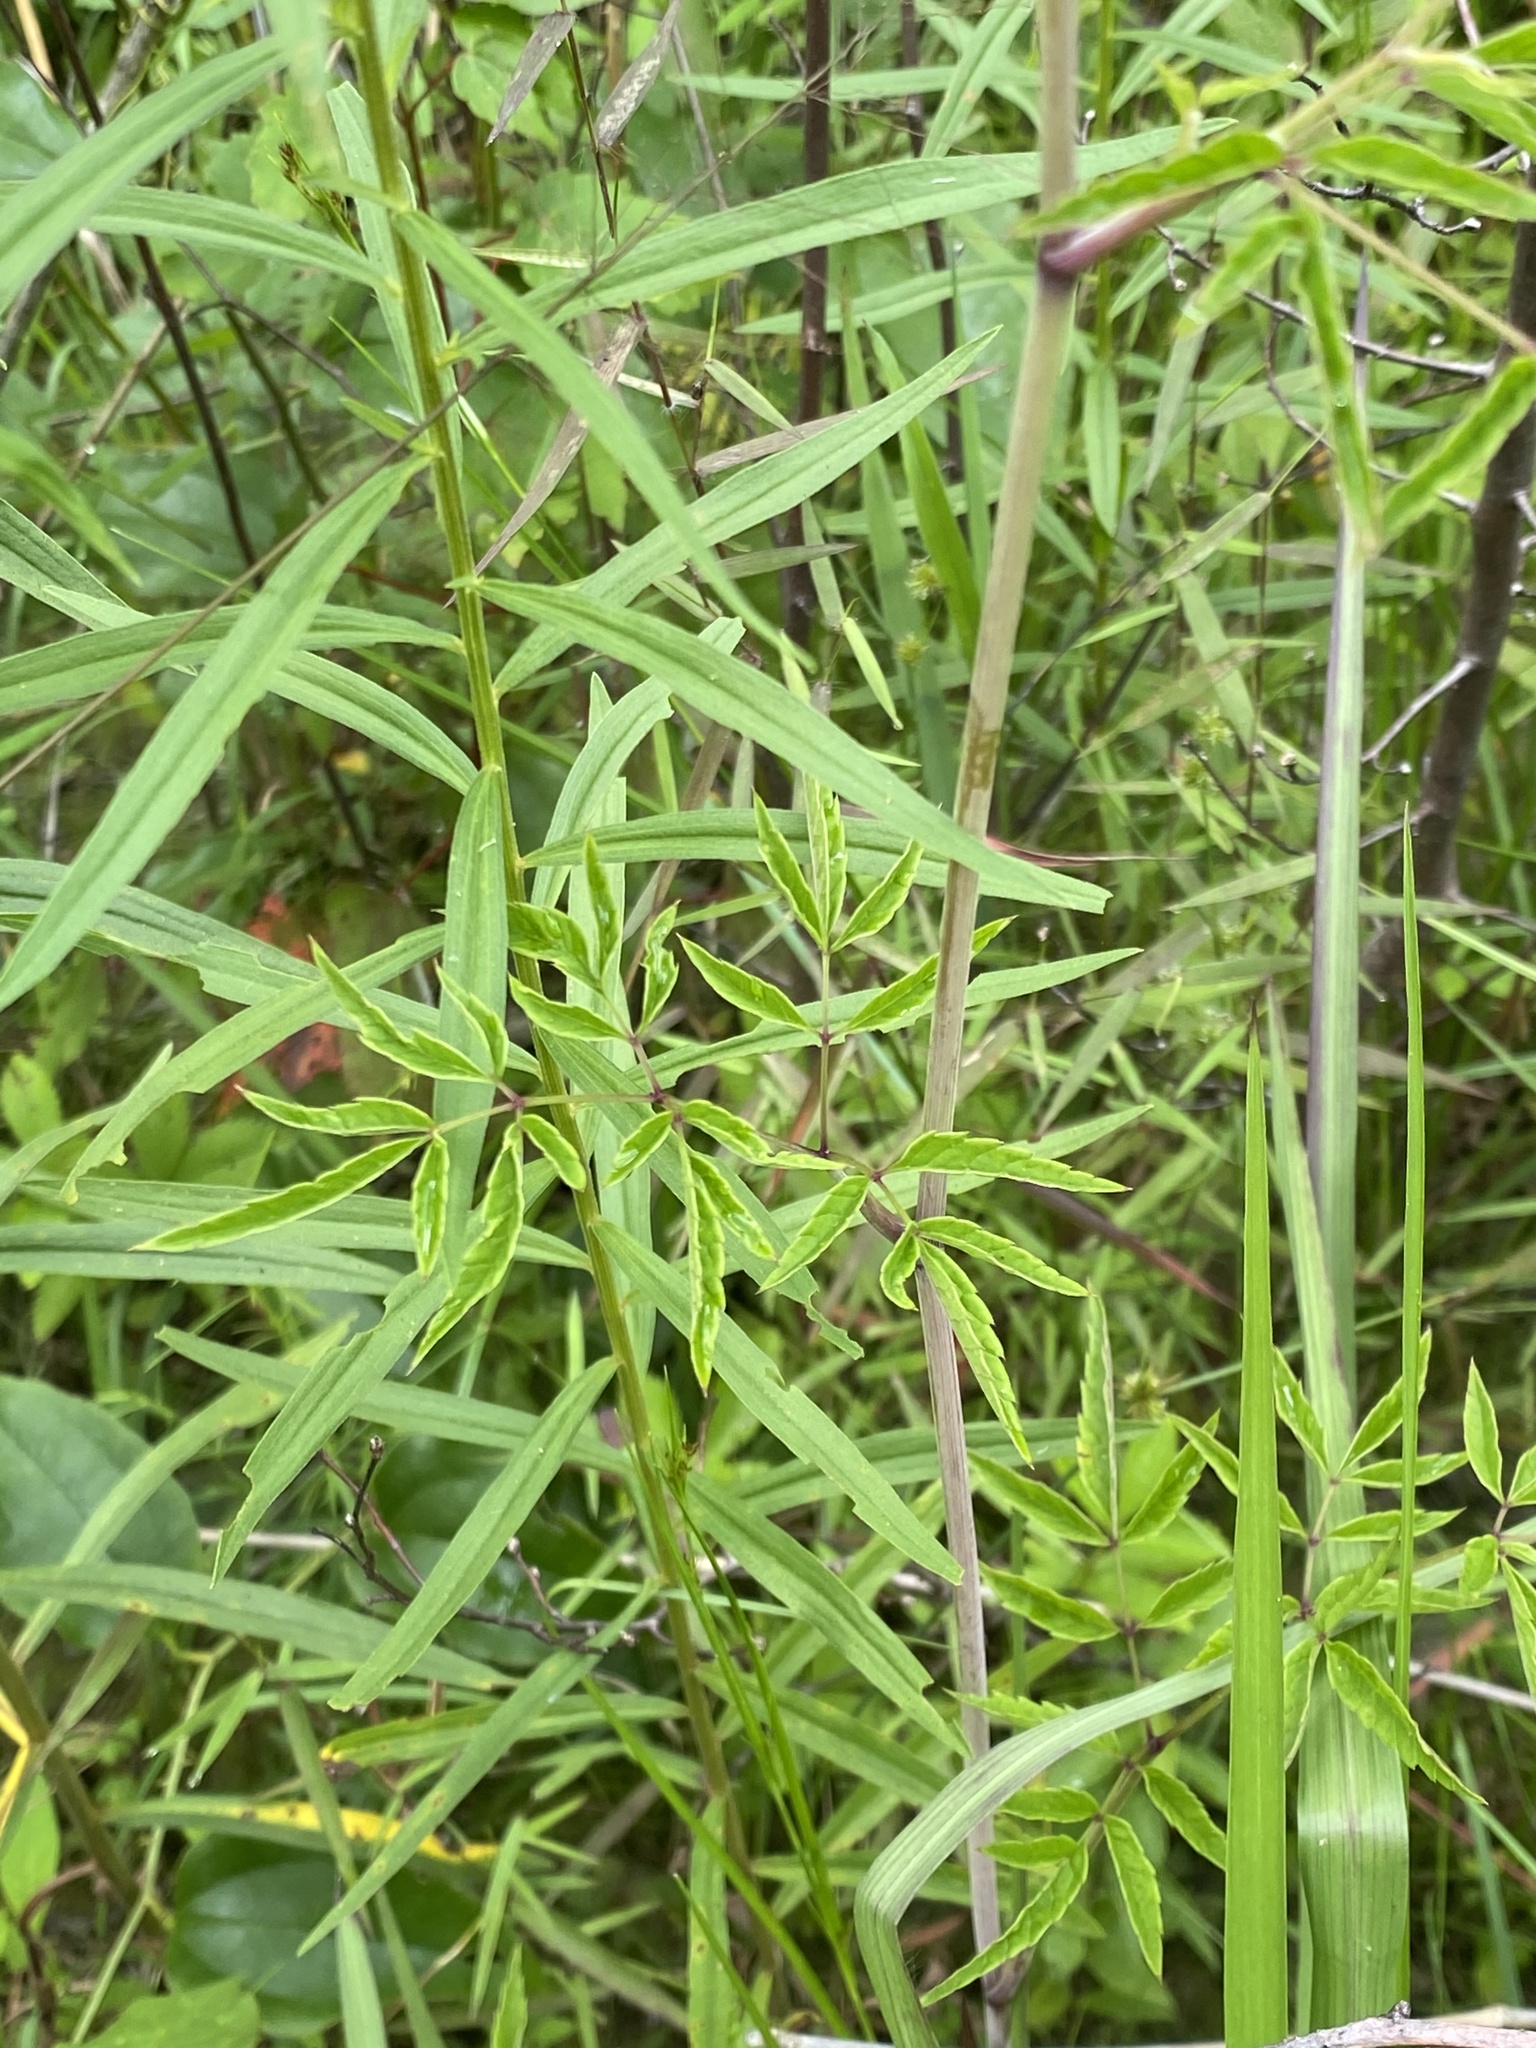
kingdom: Plantae
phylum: Tracheophyta
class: Magnoliopsida
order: Apiales
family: Apiaceae
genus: Cicuta
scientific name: Cicuta maculata
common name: Spotted cowbane
